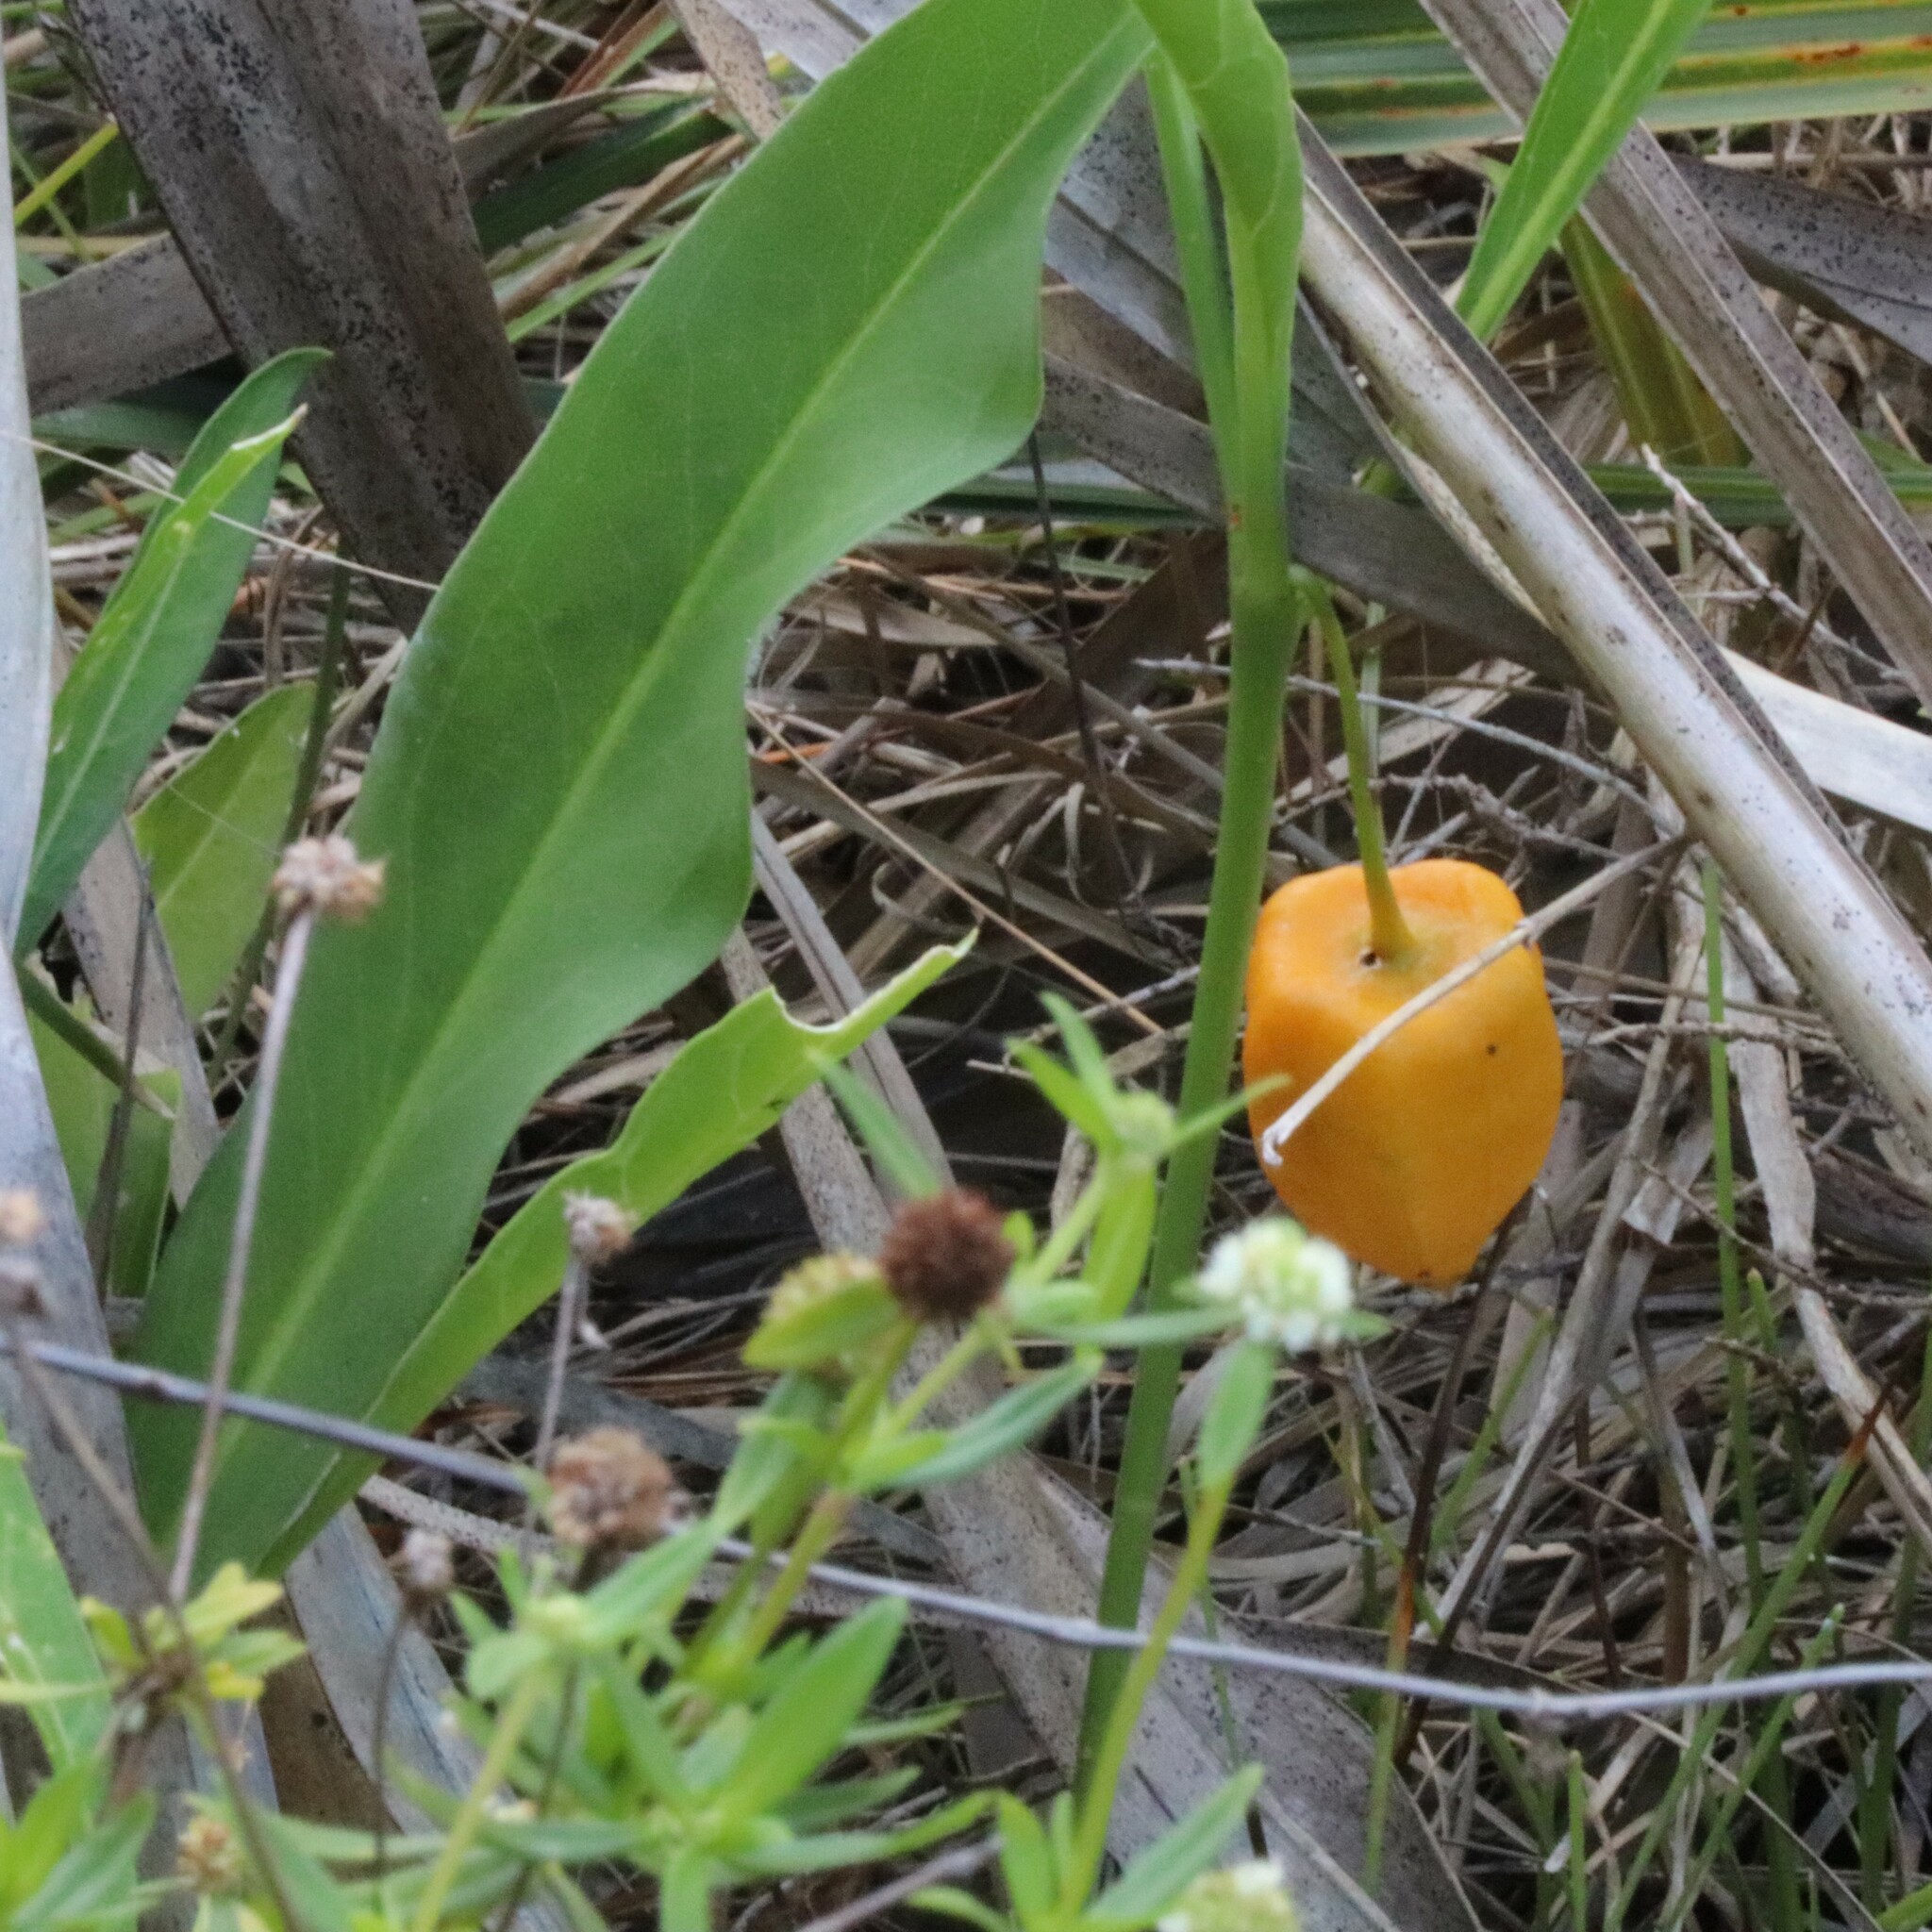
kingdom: Plantae
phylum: Tracheophyta
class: Magnoliopsida
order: Solanales
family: Solanaceae
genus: Physalis
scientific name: Physalis elliottii
